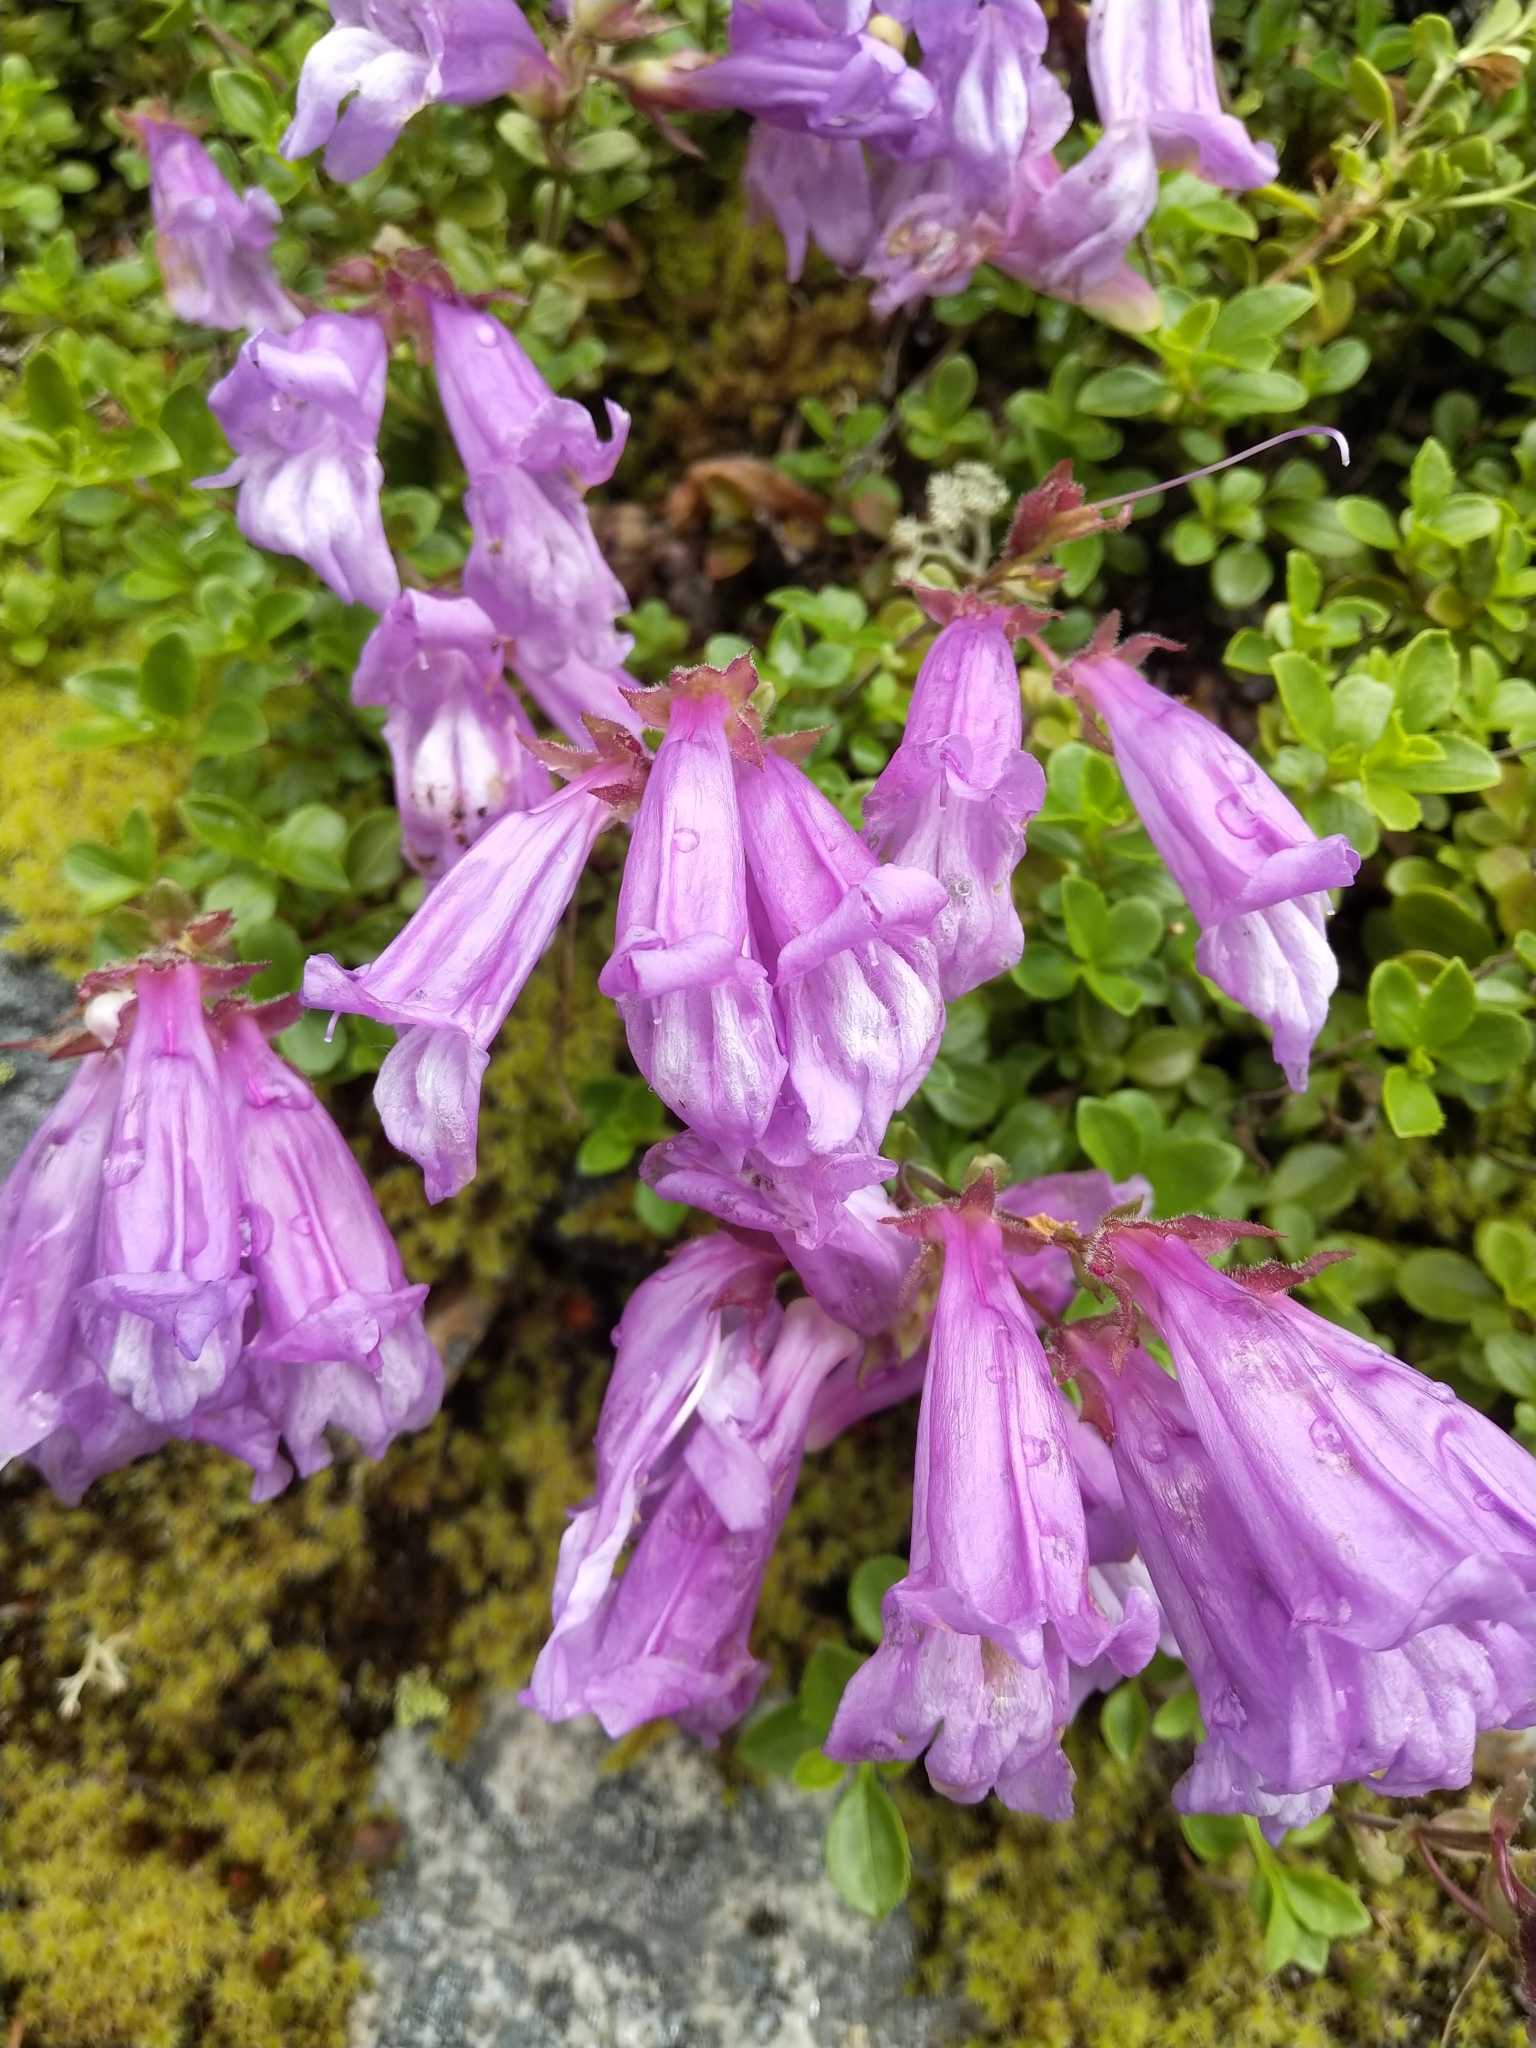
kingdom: Plantae
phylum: Tracheophyta
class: Magnoliopsida
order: Lamiales
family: Plantaginaceae
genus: Penstemon
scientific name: Penstemon davidsonii
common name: Davidson's penstemon
